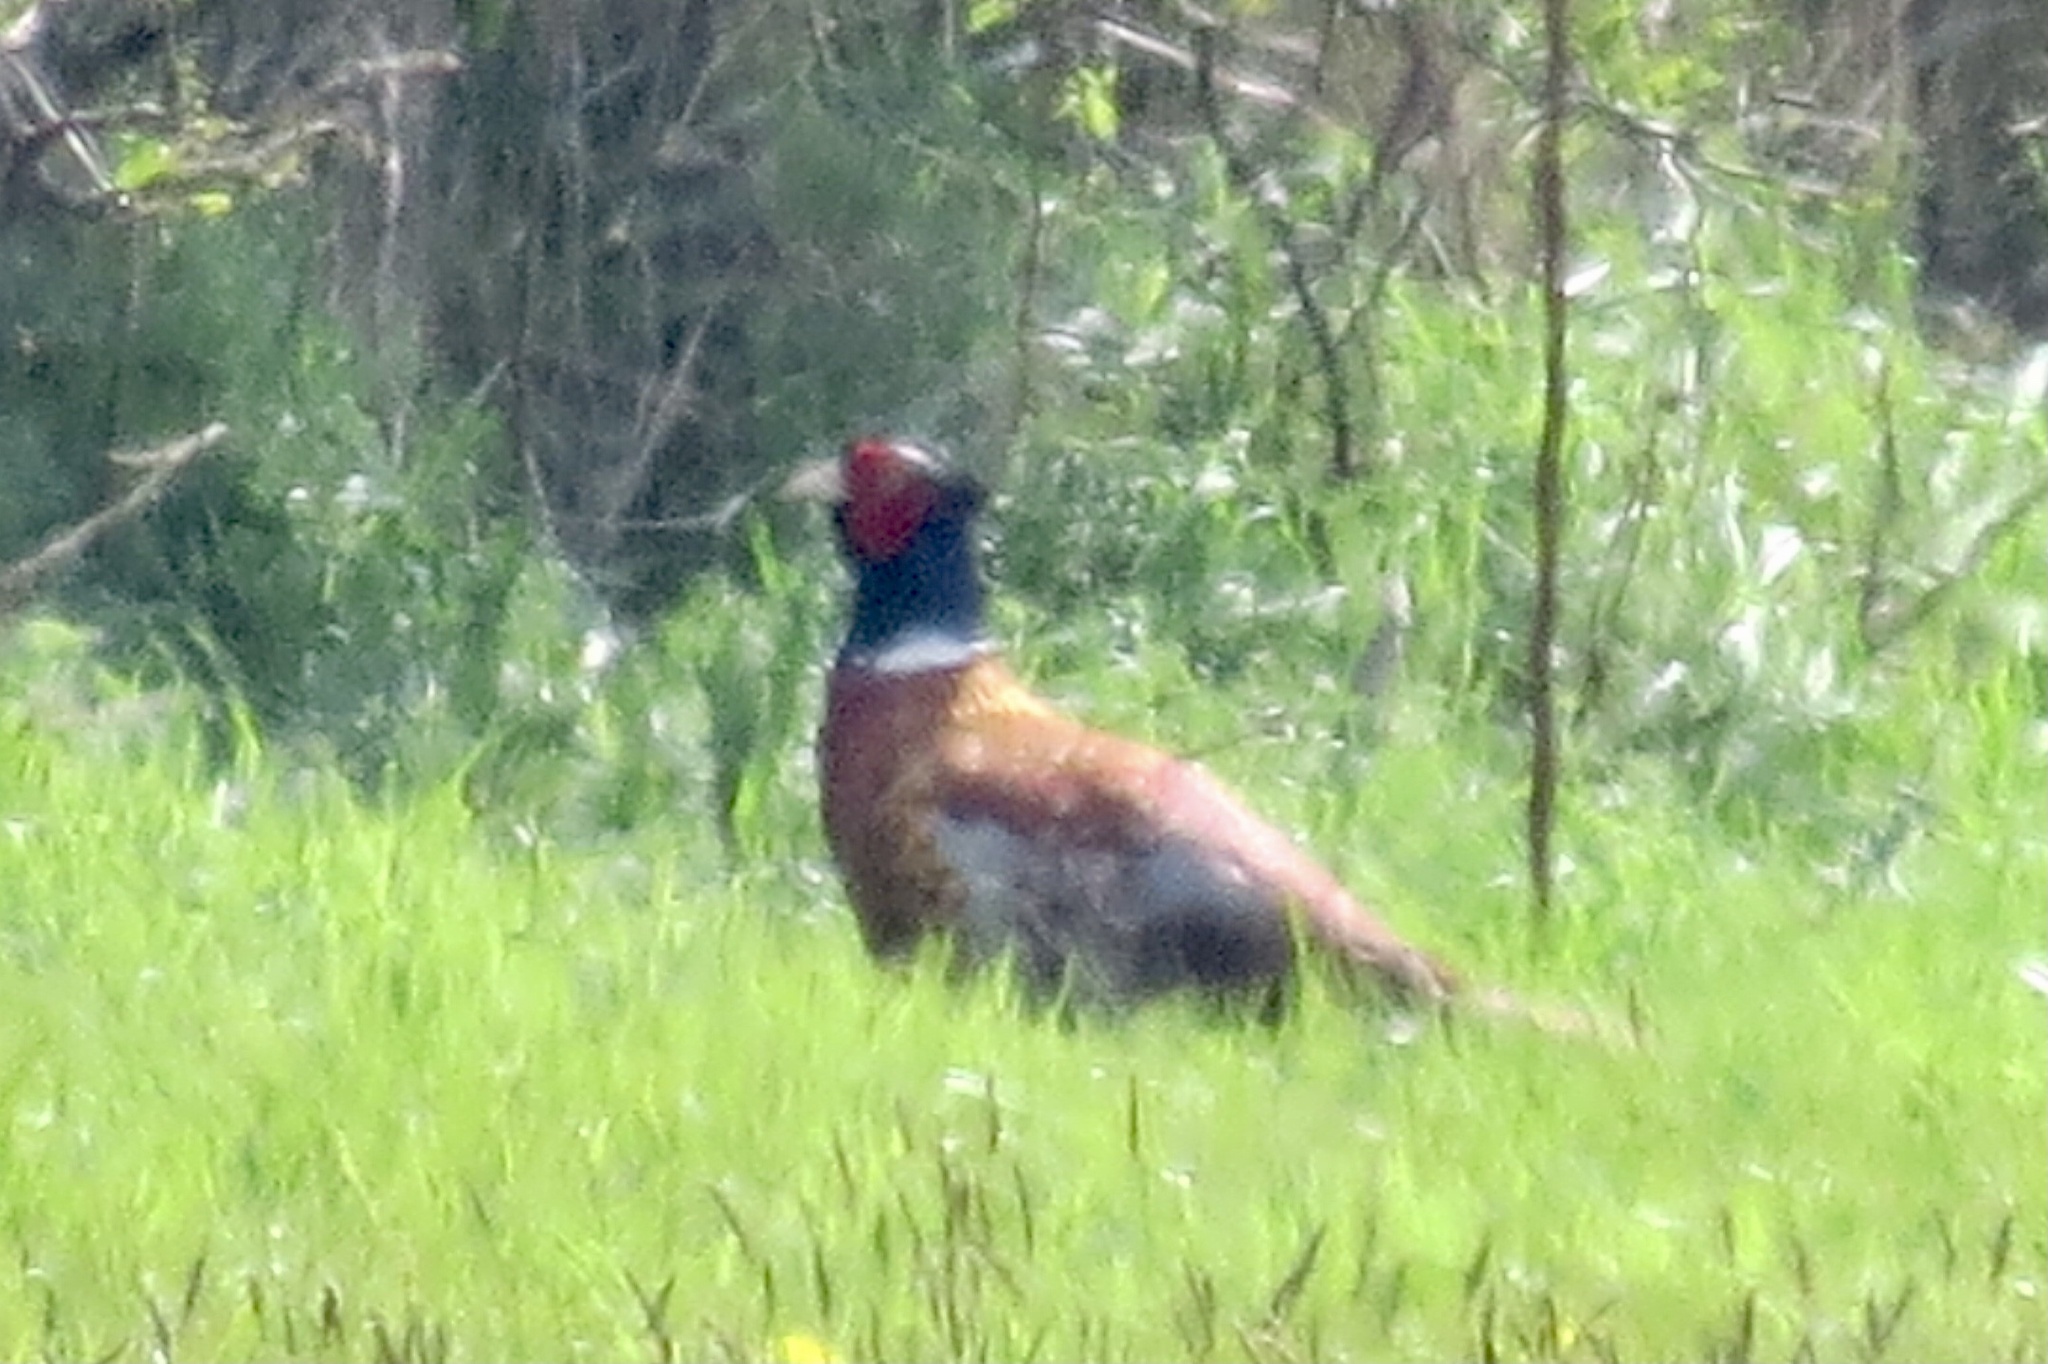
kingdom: Animalia
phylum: Chordata
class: Aves
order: Galliformes
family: Phasianidae
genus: Phasianus
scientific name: Phasianus colchicus
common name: Common pheasant
